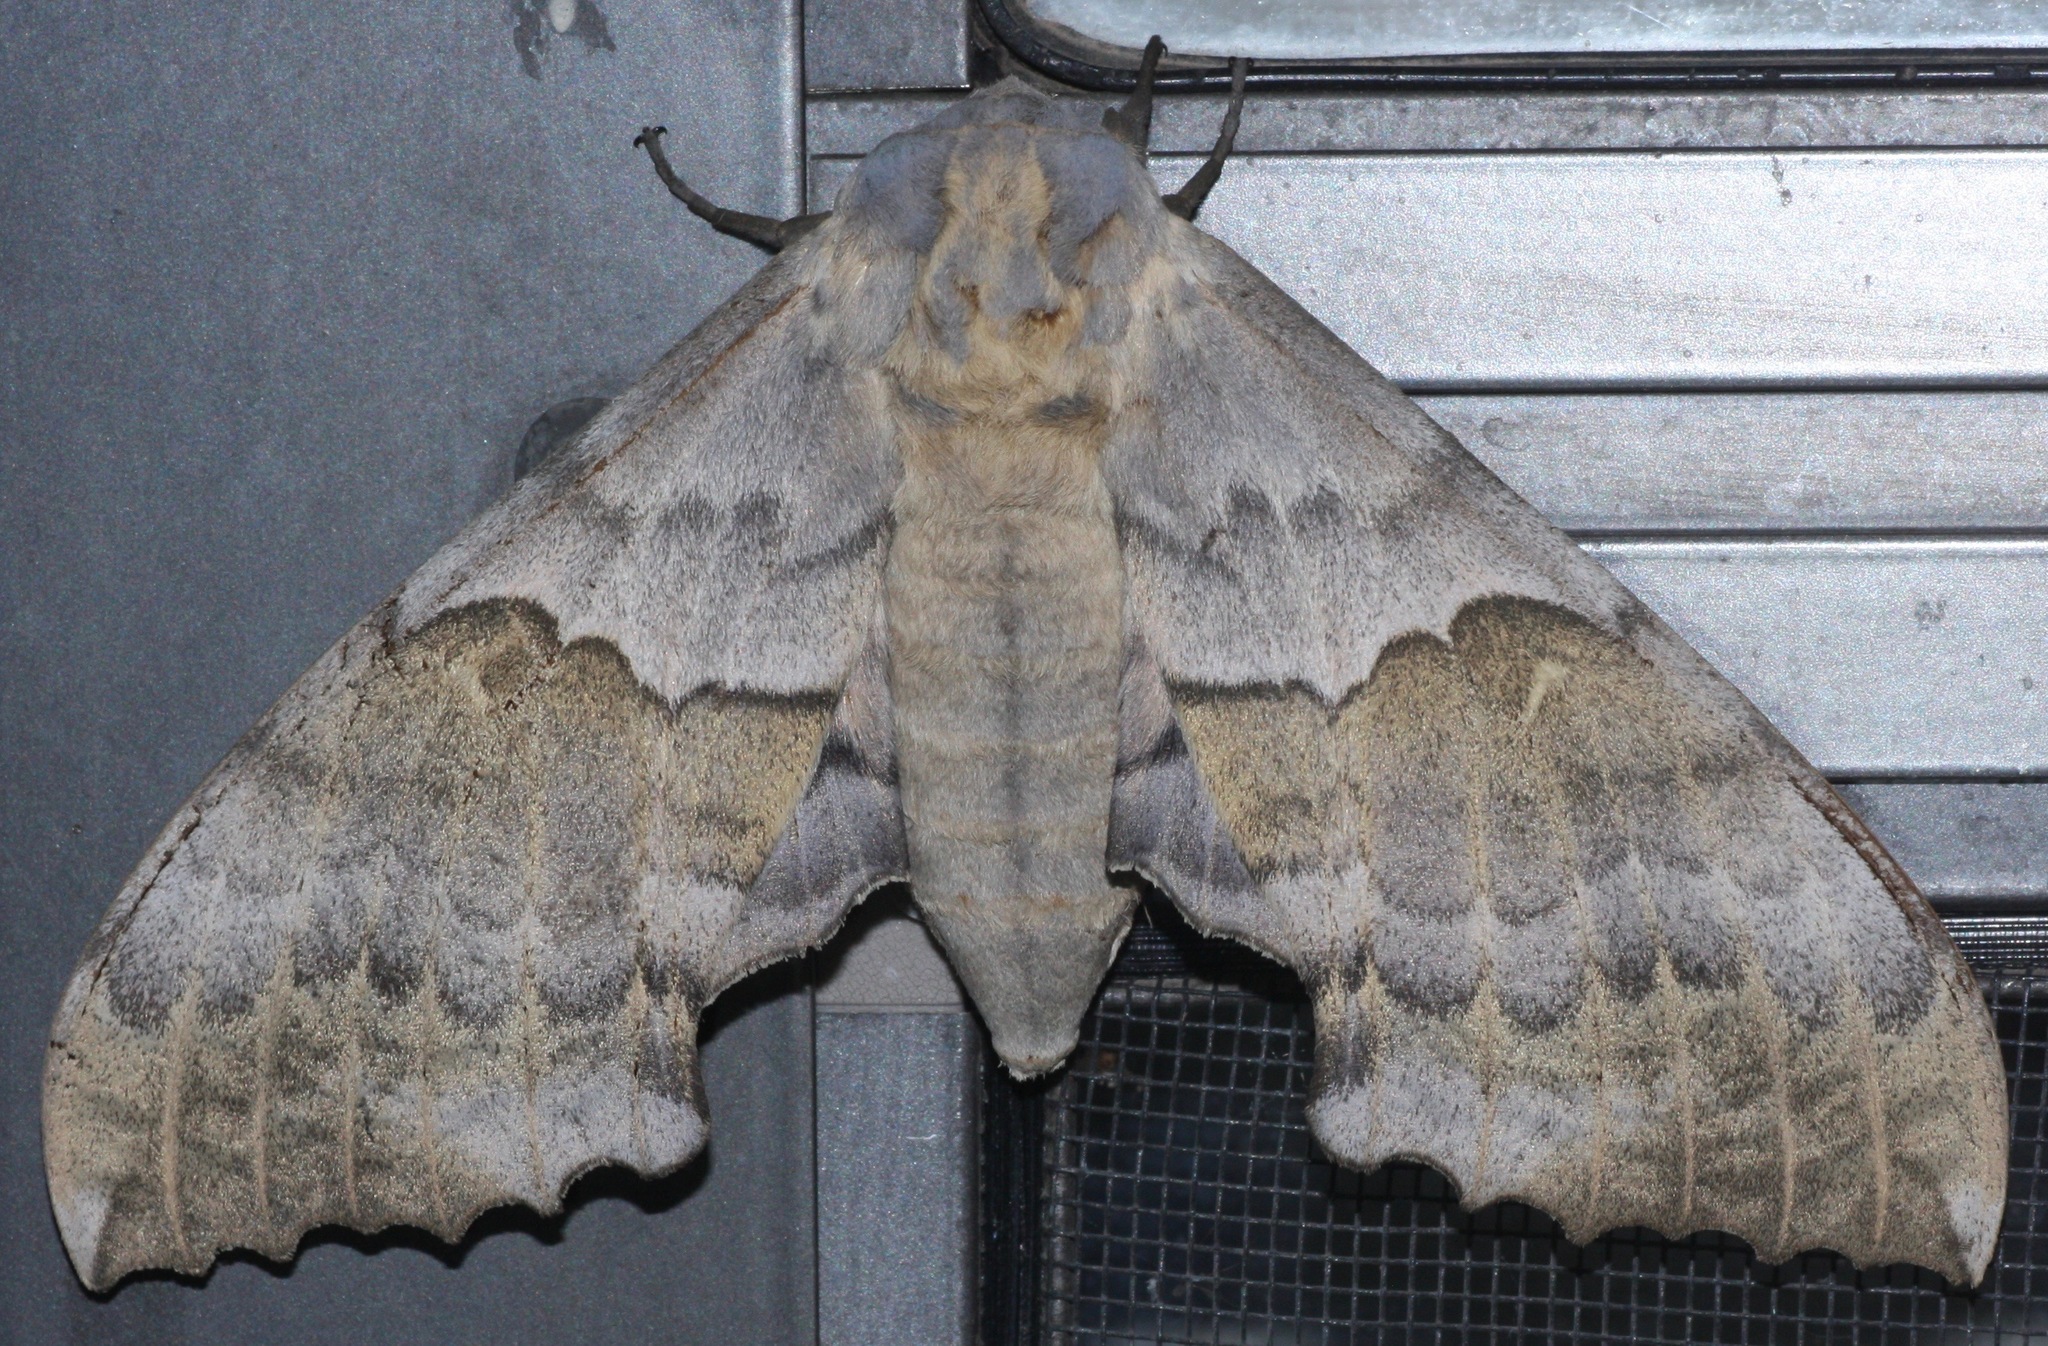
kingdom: Animalia
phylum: Arthropoda
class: Insecta
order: Lepidoptera
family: Sphingidae
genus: Pachysphinx
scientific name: Pachysphinx occidentalis
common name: Western poplar sphinx
